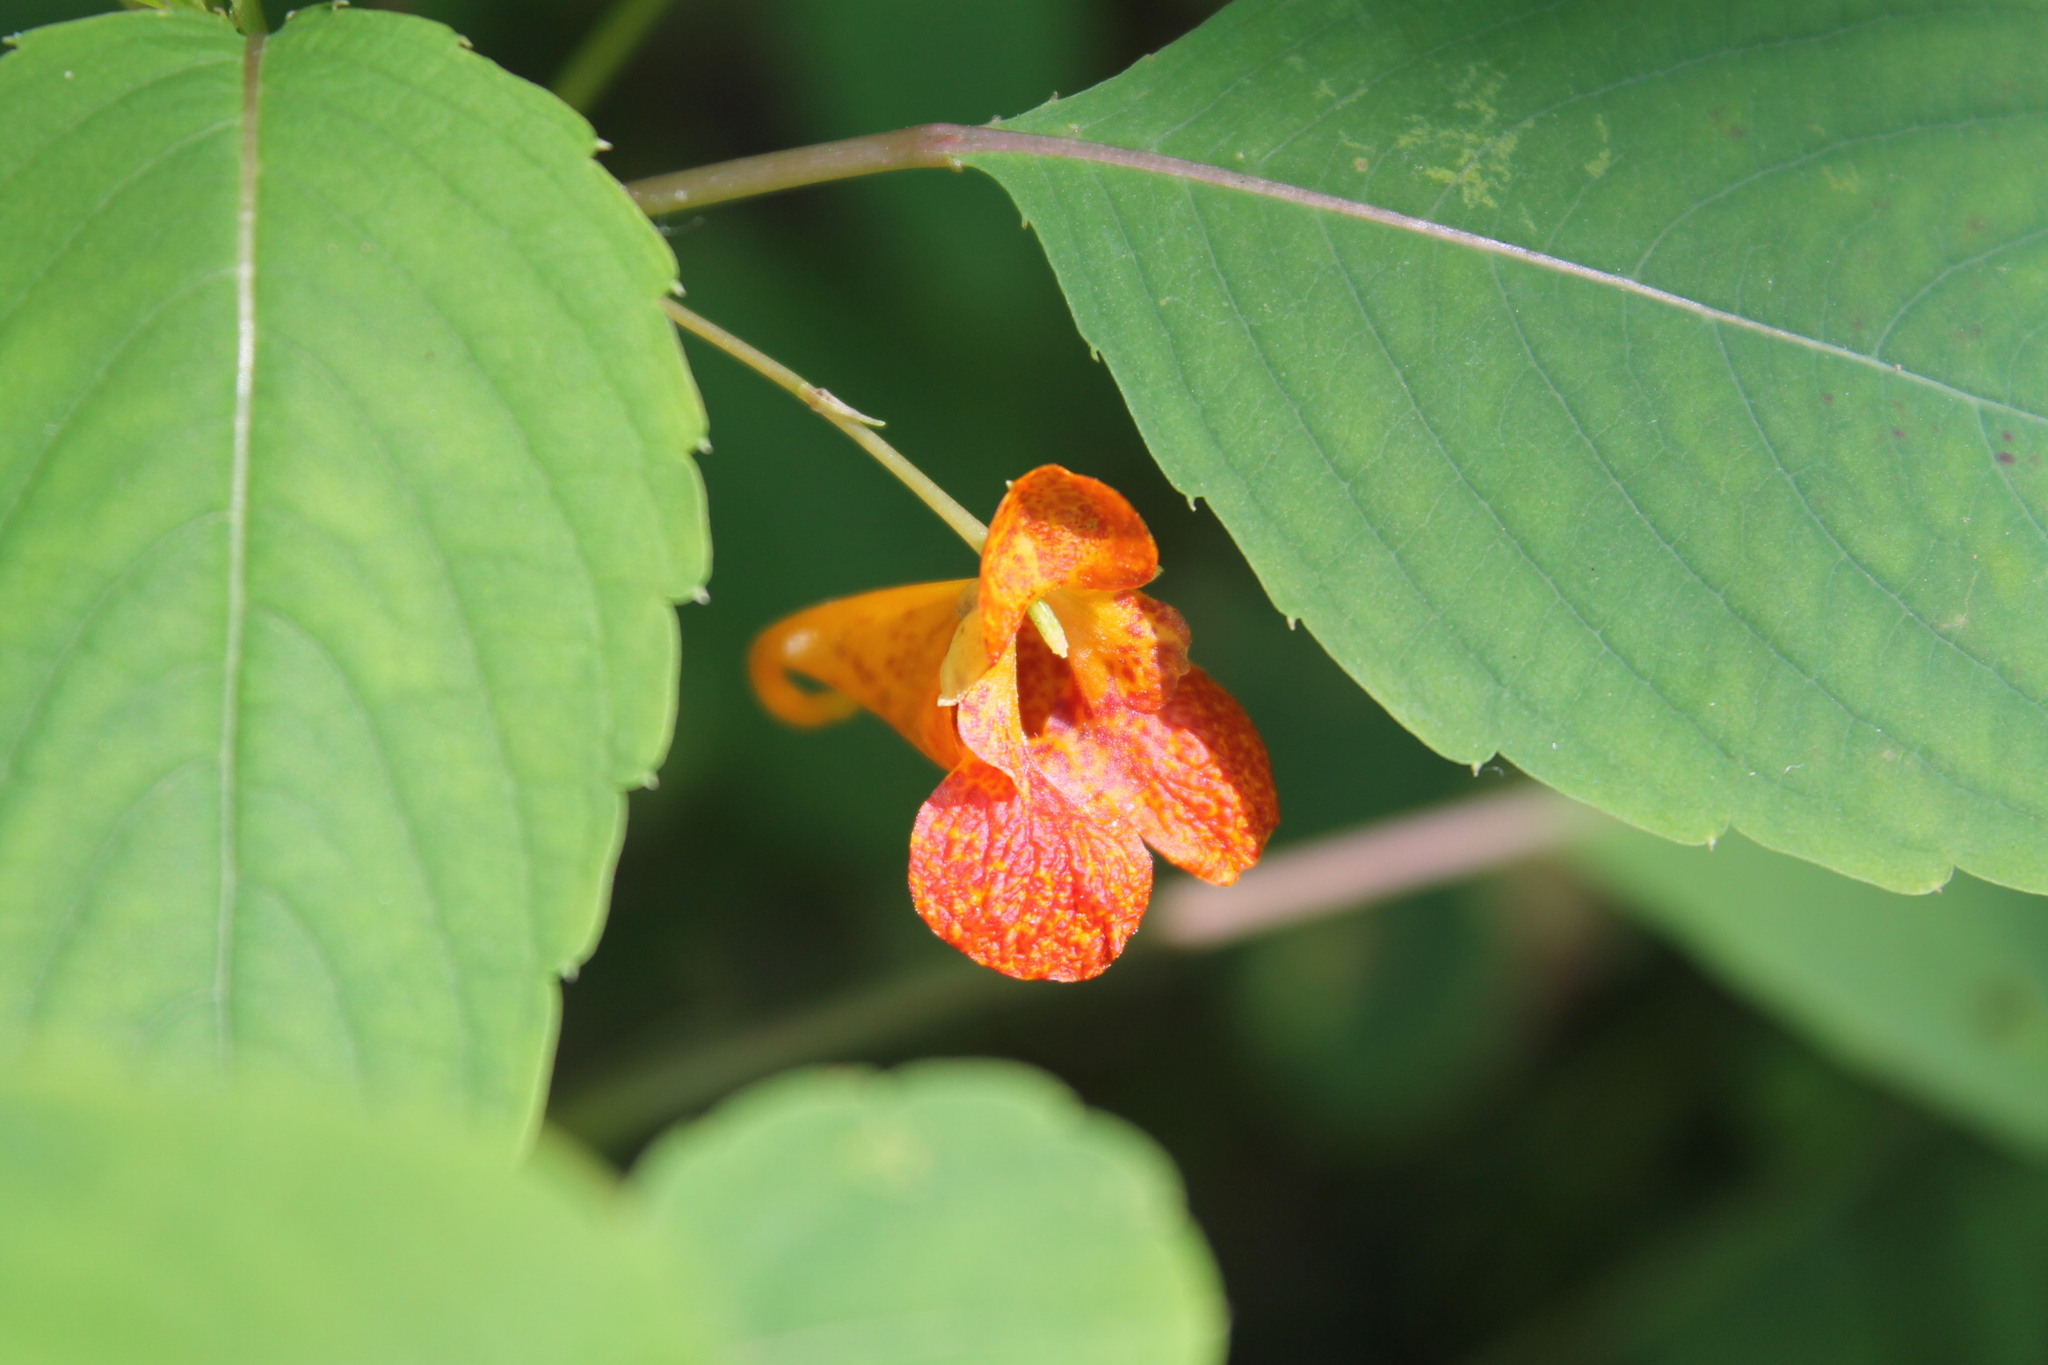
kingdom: Plantae
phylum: Tracheophyta
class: Magnoliopsida
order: Ericales
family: Balsaminaceae
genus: Impatiens
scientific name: Impatiens capensis
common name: Orange balsam
